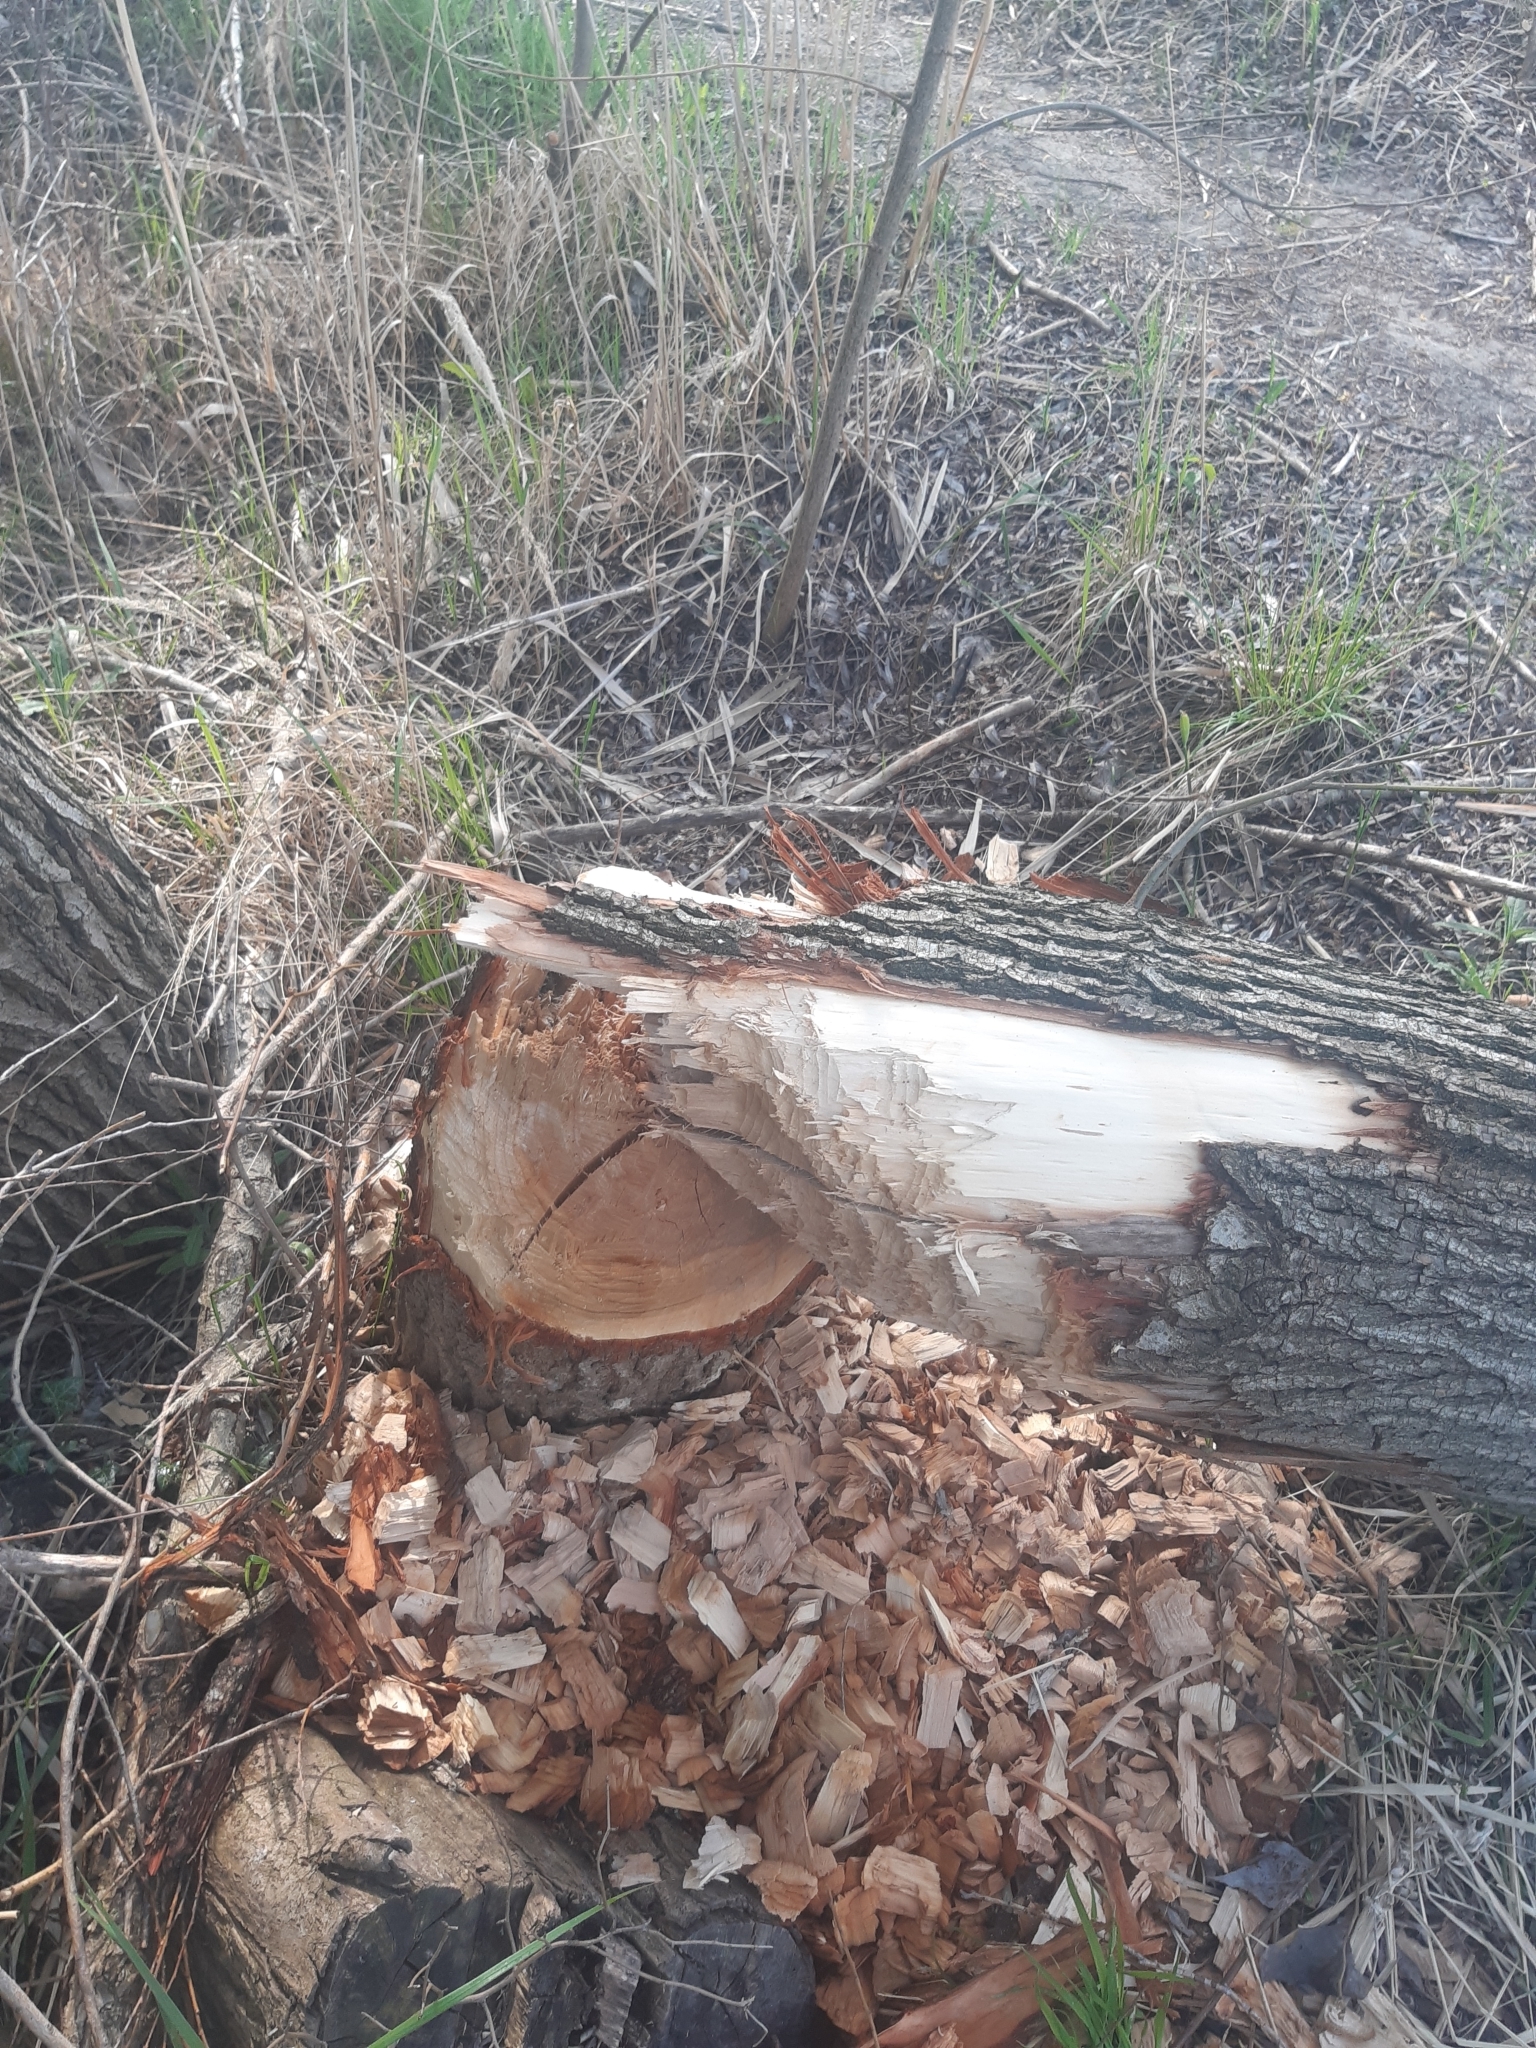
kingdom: Animalia
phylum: Chordata
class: Mammalia
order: Rodentia
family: Castoridae
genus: Castor
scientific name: Castor fiber
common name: Eurasian beaver
